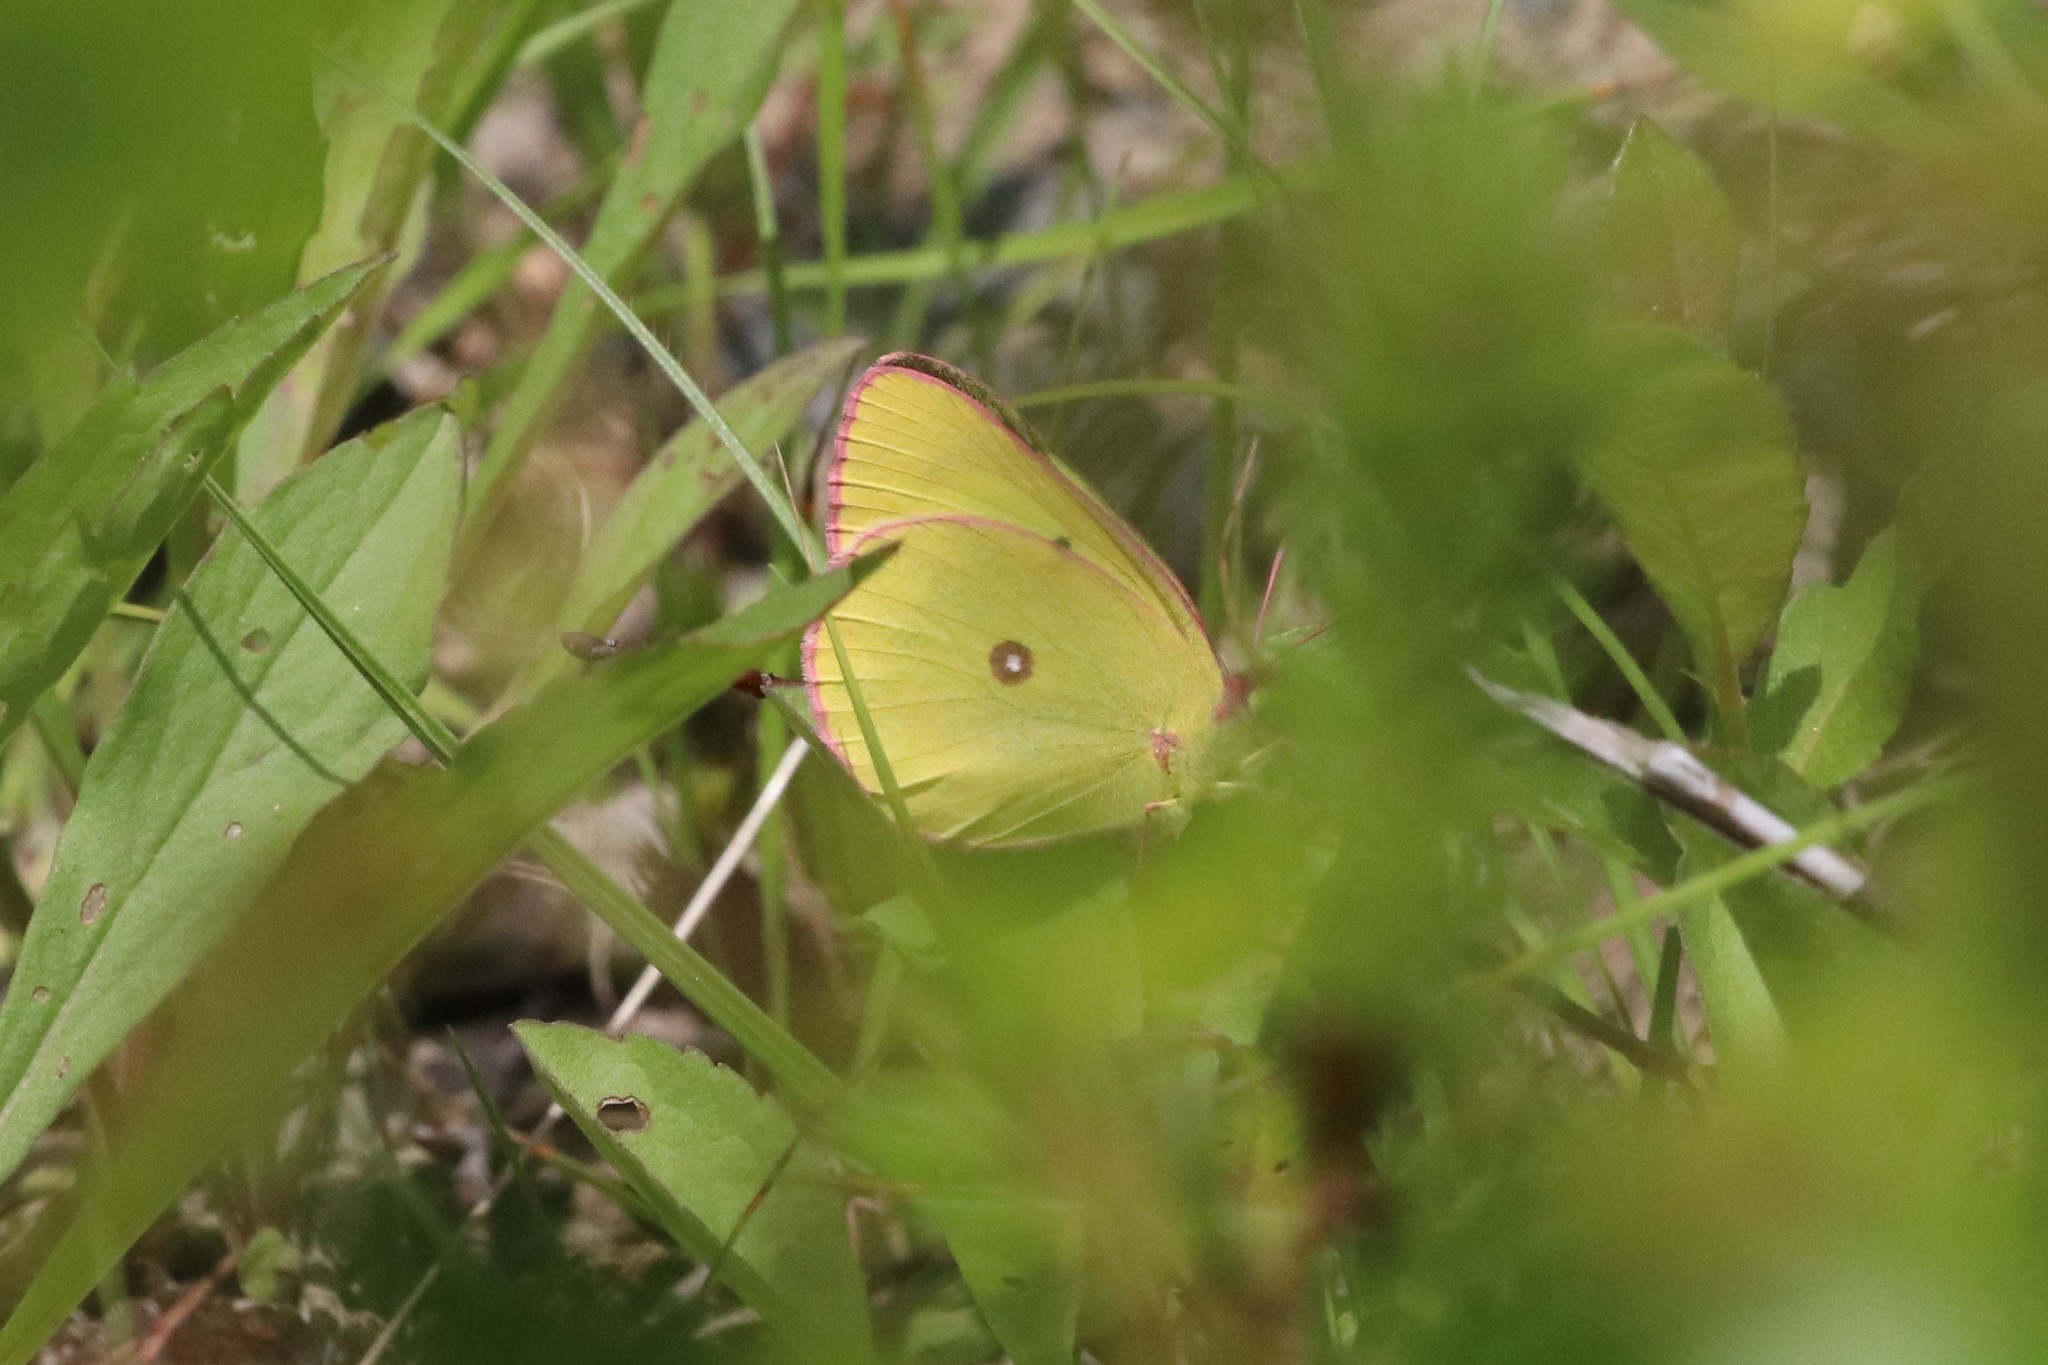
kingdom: Animalia
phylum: Arthropoda
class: Insecta
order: Lepidoptera
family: Pieridae
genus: Colias
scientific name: Colias interior
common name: Pink-edged sulphur
